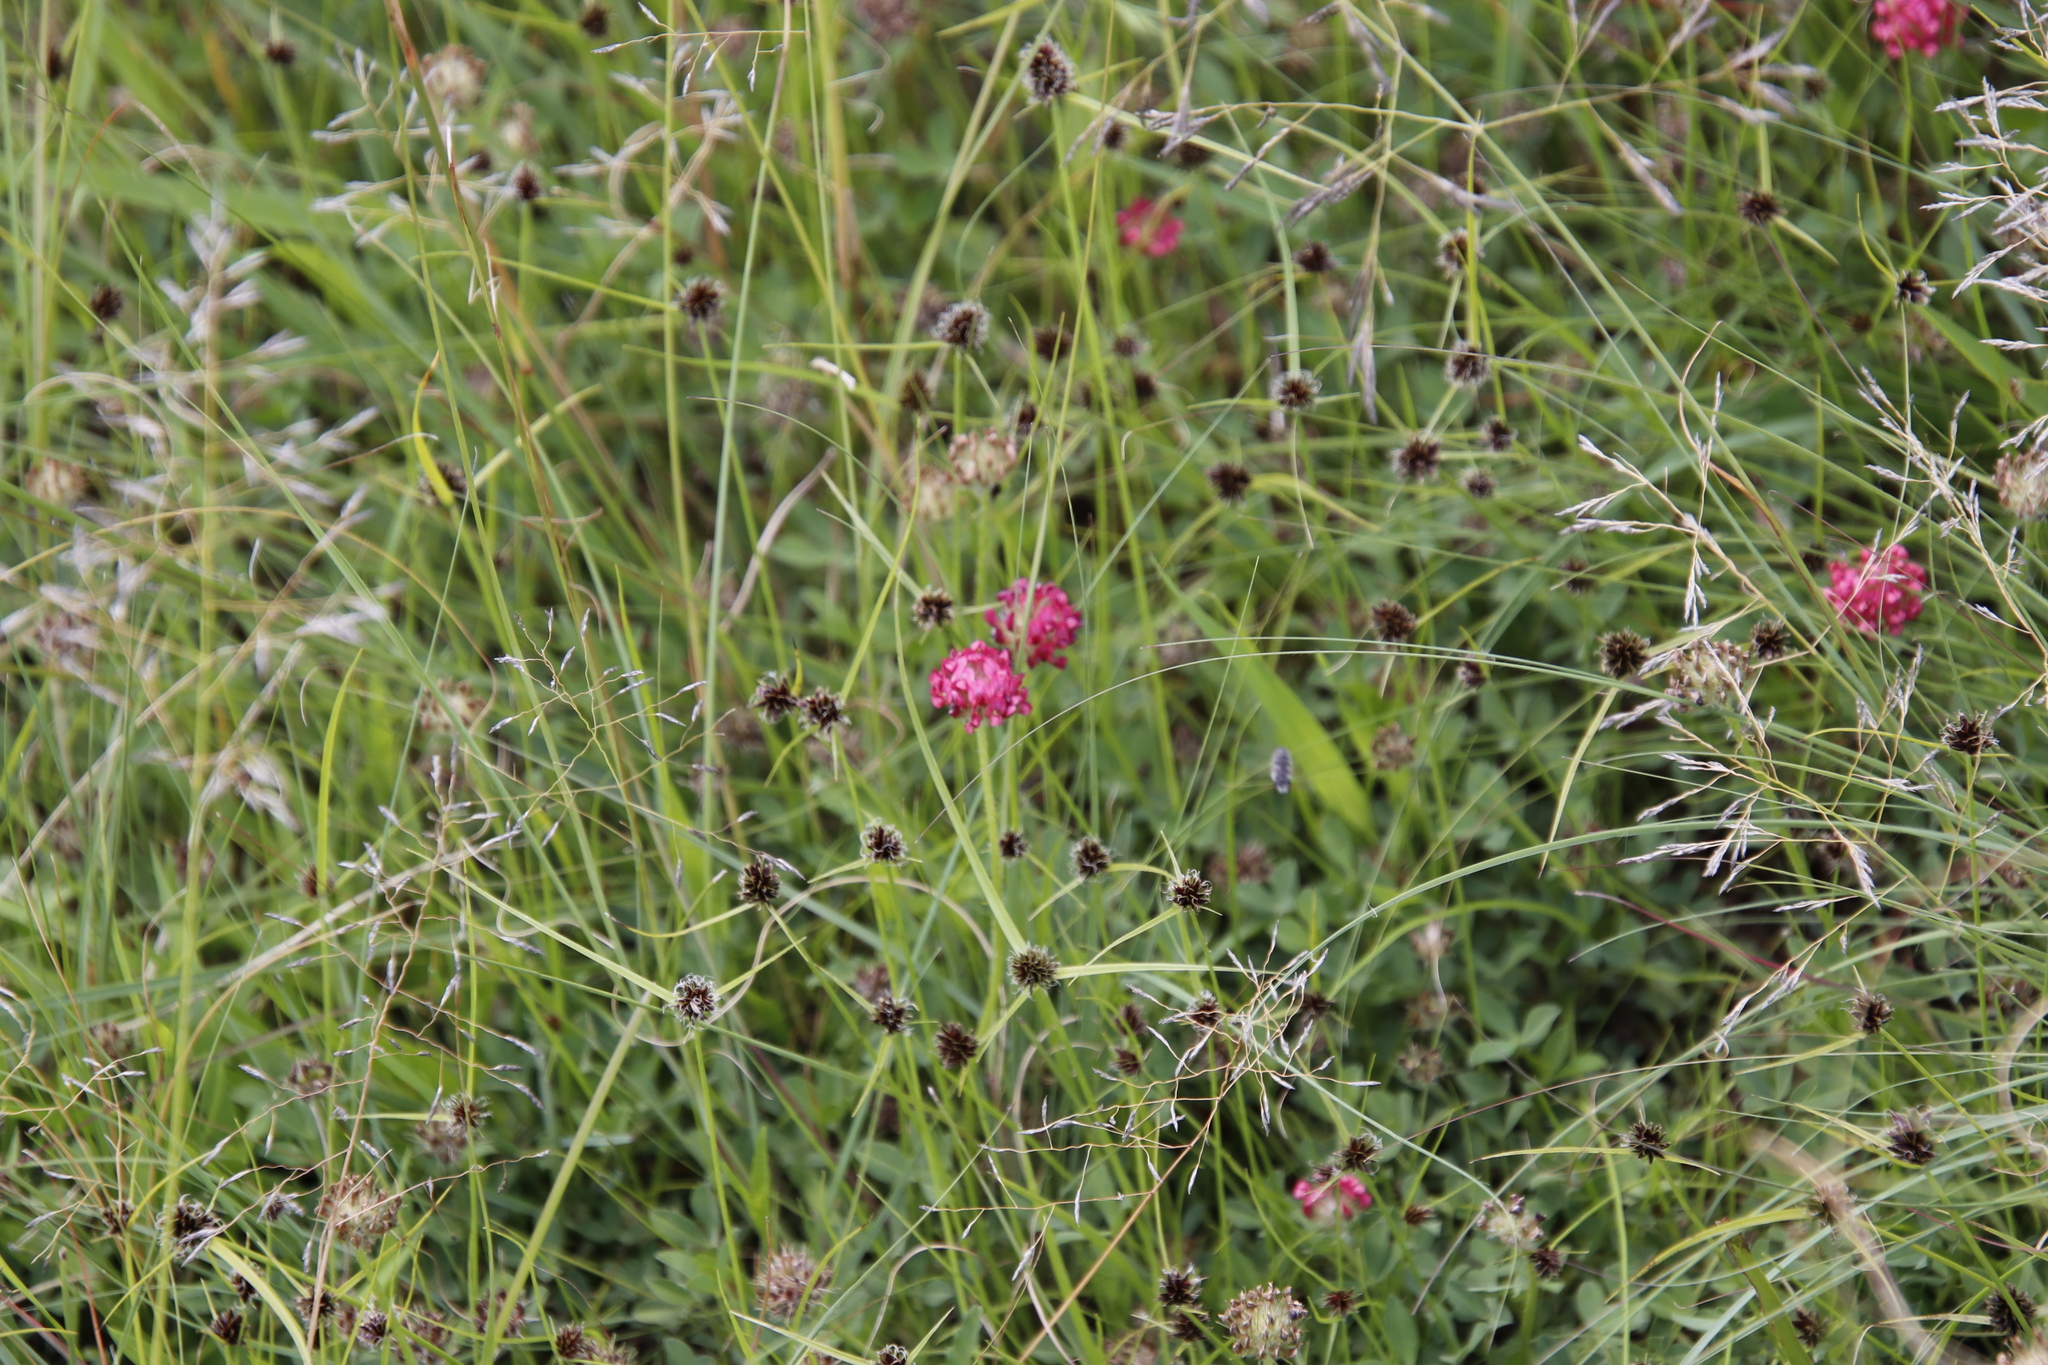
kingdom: Plantae
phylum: Tracheophyta
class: Magnoliopsida
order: Fabales
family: Fabaceae
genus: Trifolium
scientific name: Trifolium burchellianum
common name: Burchell's clover
